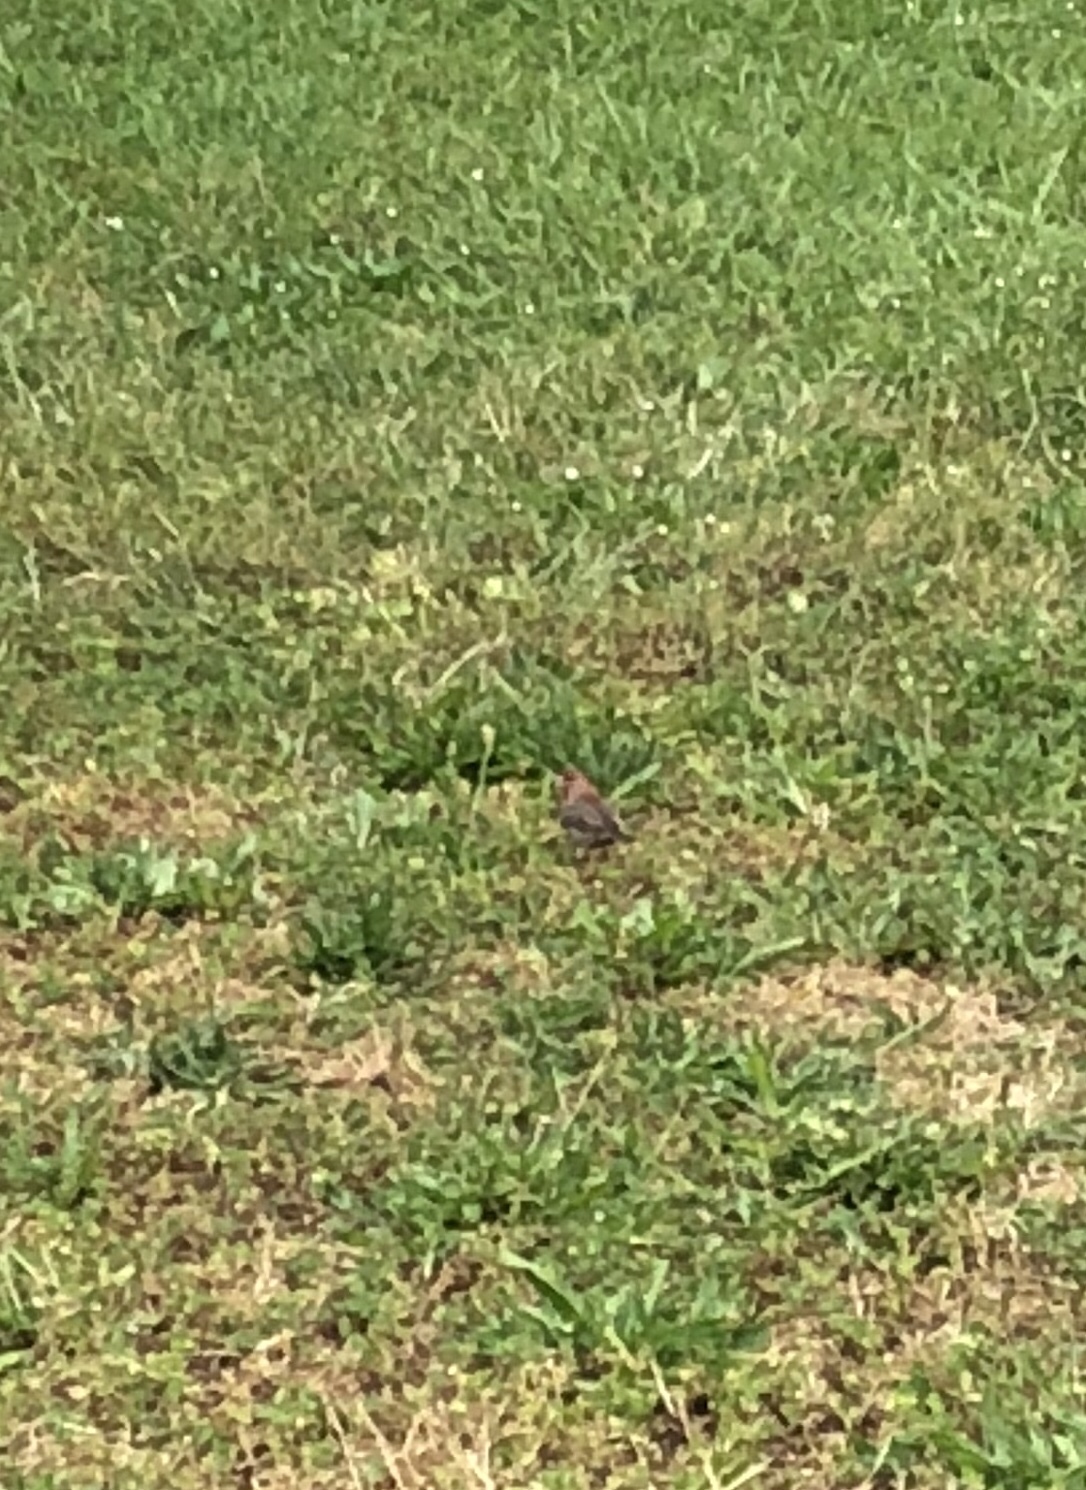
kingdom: Animalia
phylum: Chordata
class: Aves
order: Passeriformes
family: Fringillidae
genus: Haemorhous
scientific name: Haemorhous mexicanus
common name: House finch
